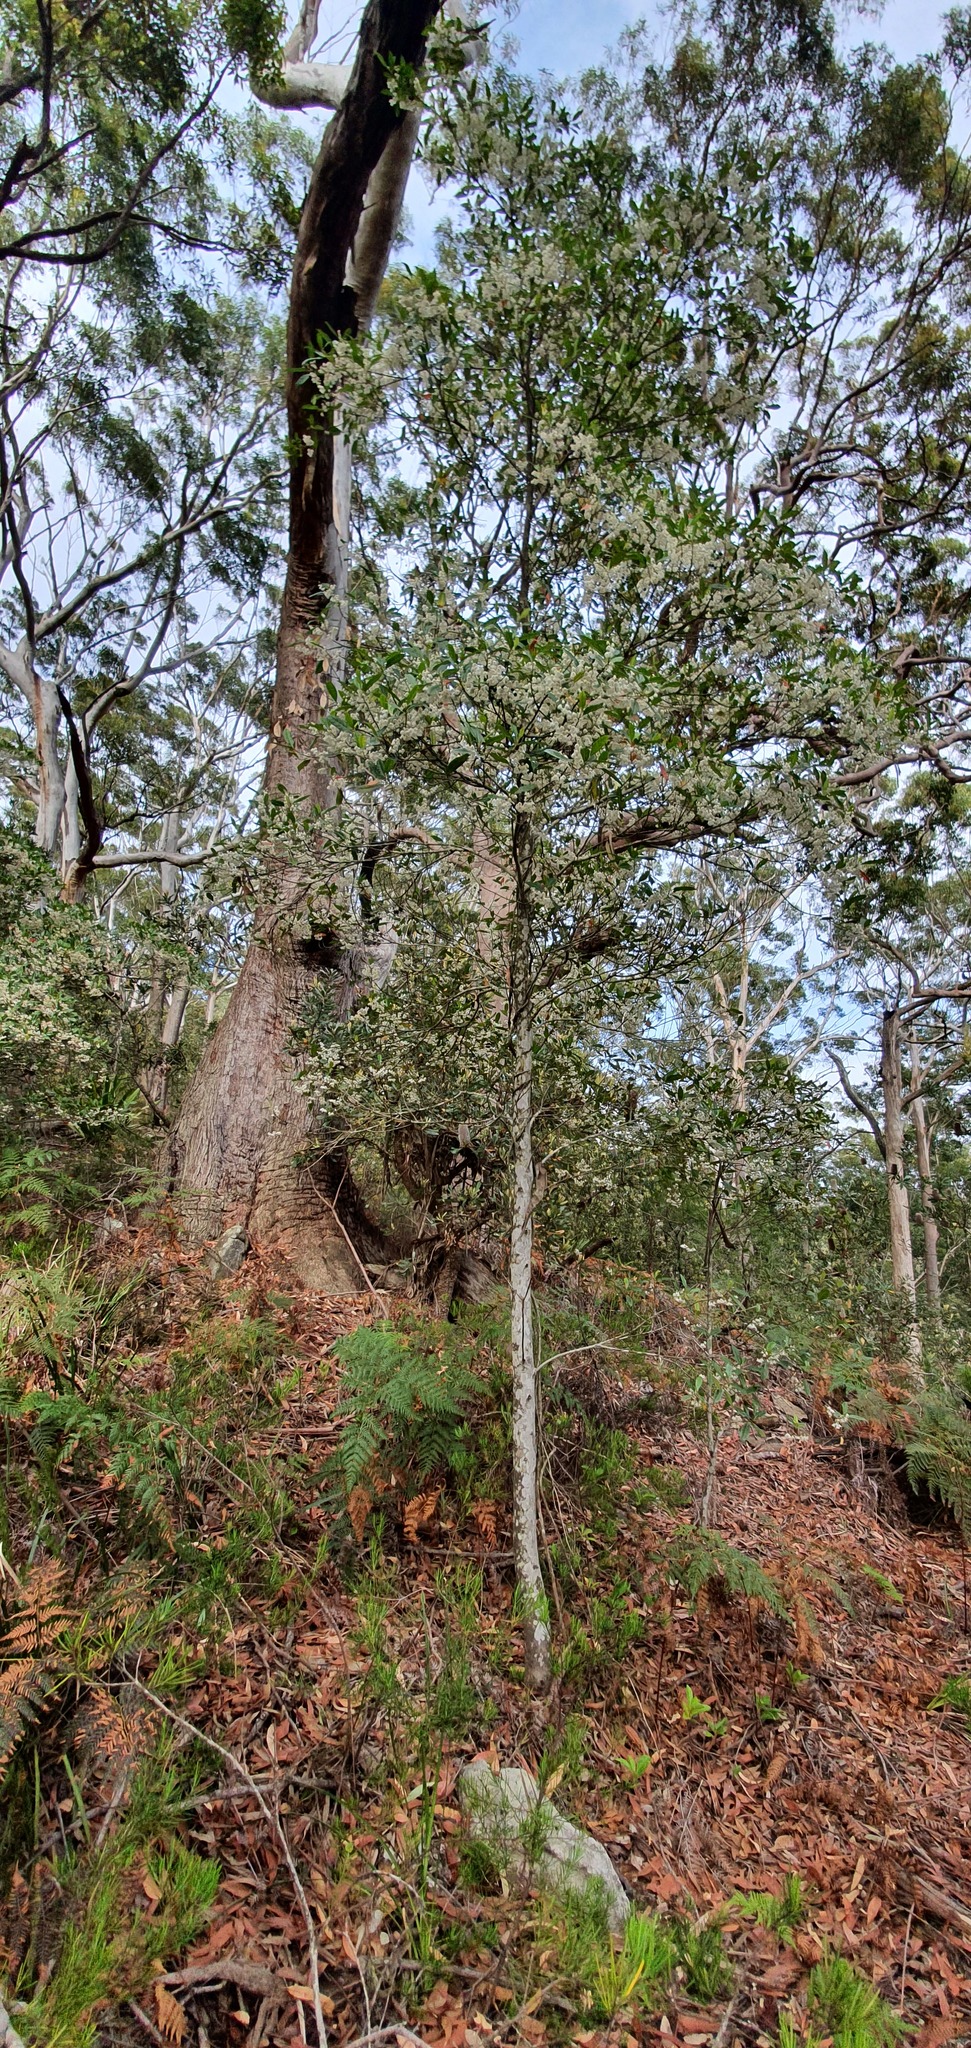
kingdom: Plantae
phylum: Tracheophyta
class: Magnoliopsida
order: Oxalidales
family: Elaeocarpaceae
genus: Elaeocarpus
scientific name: Elaeocarpus reticulatus
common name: Ash quandong
